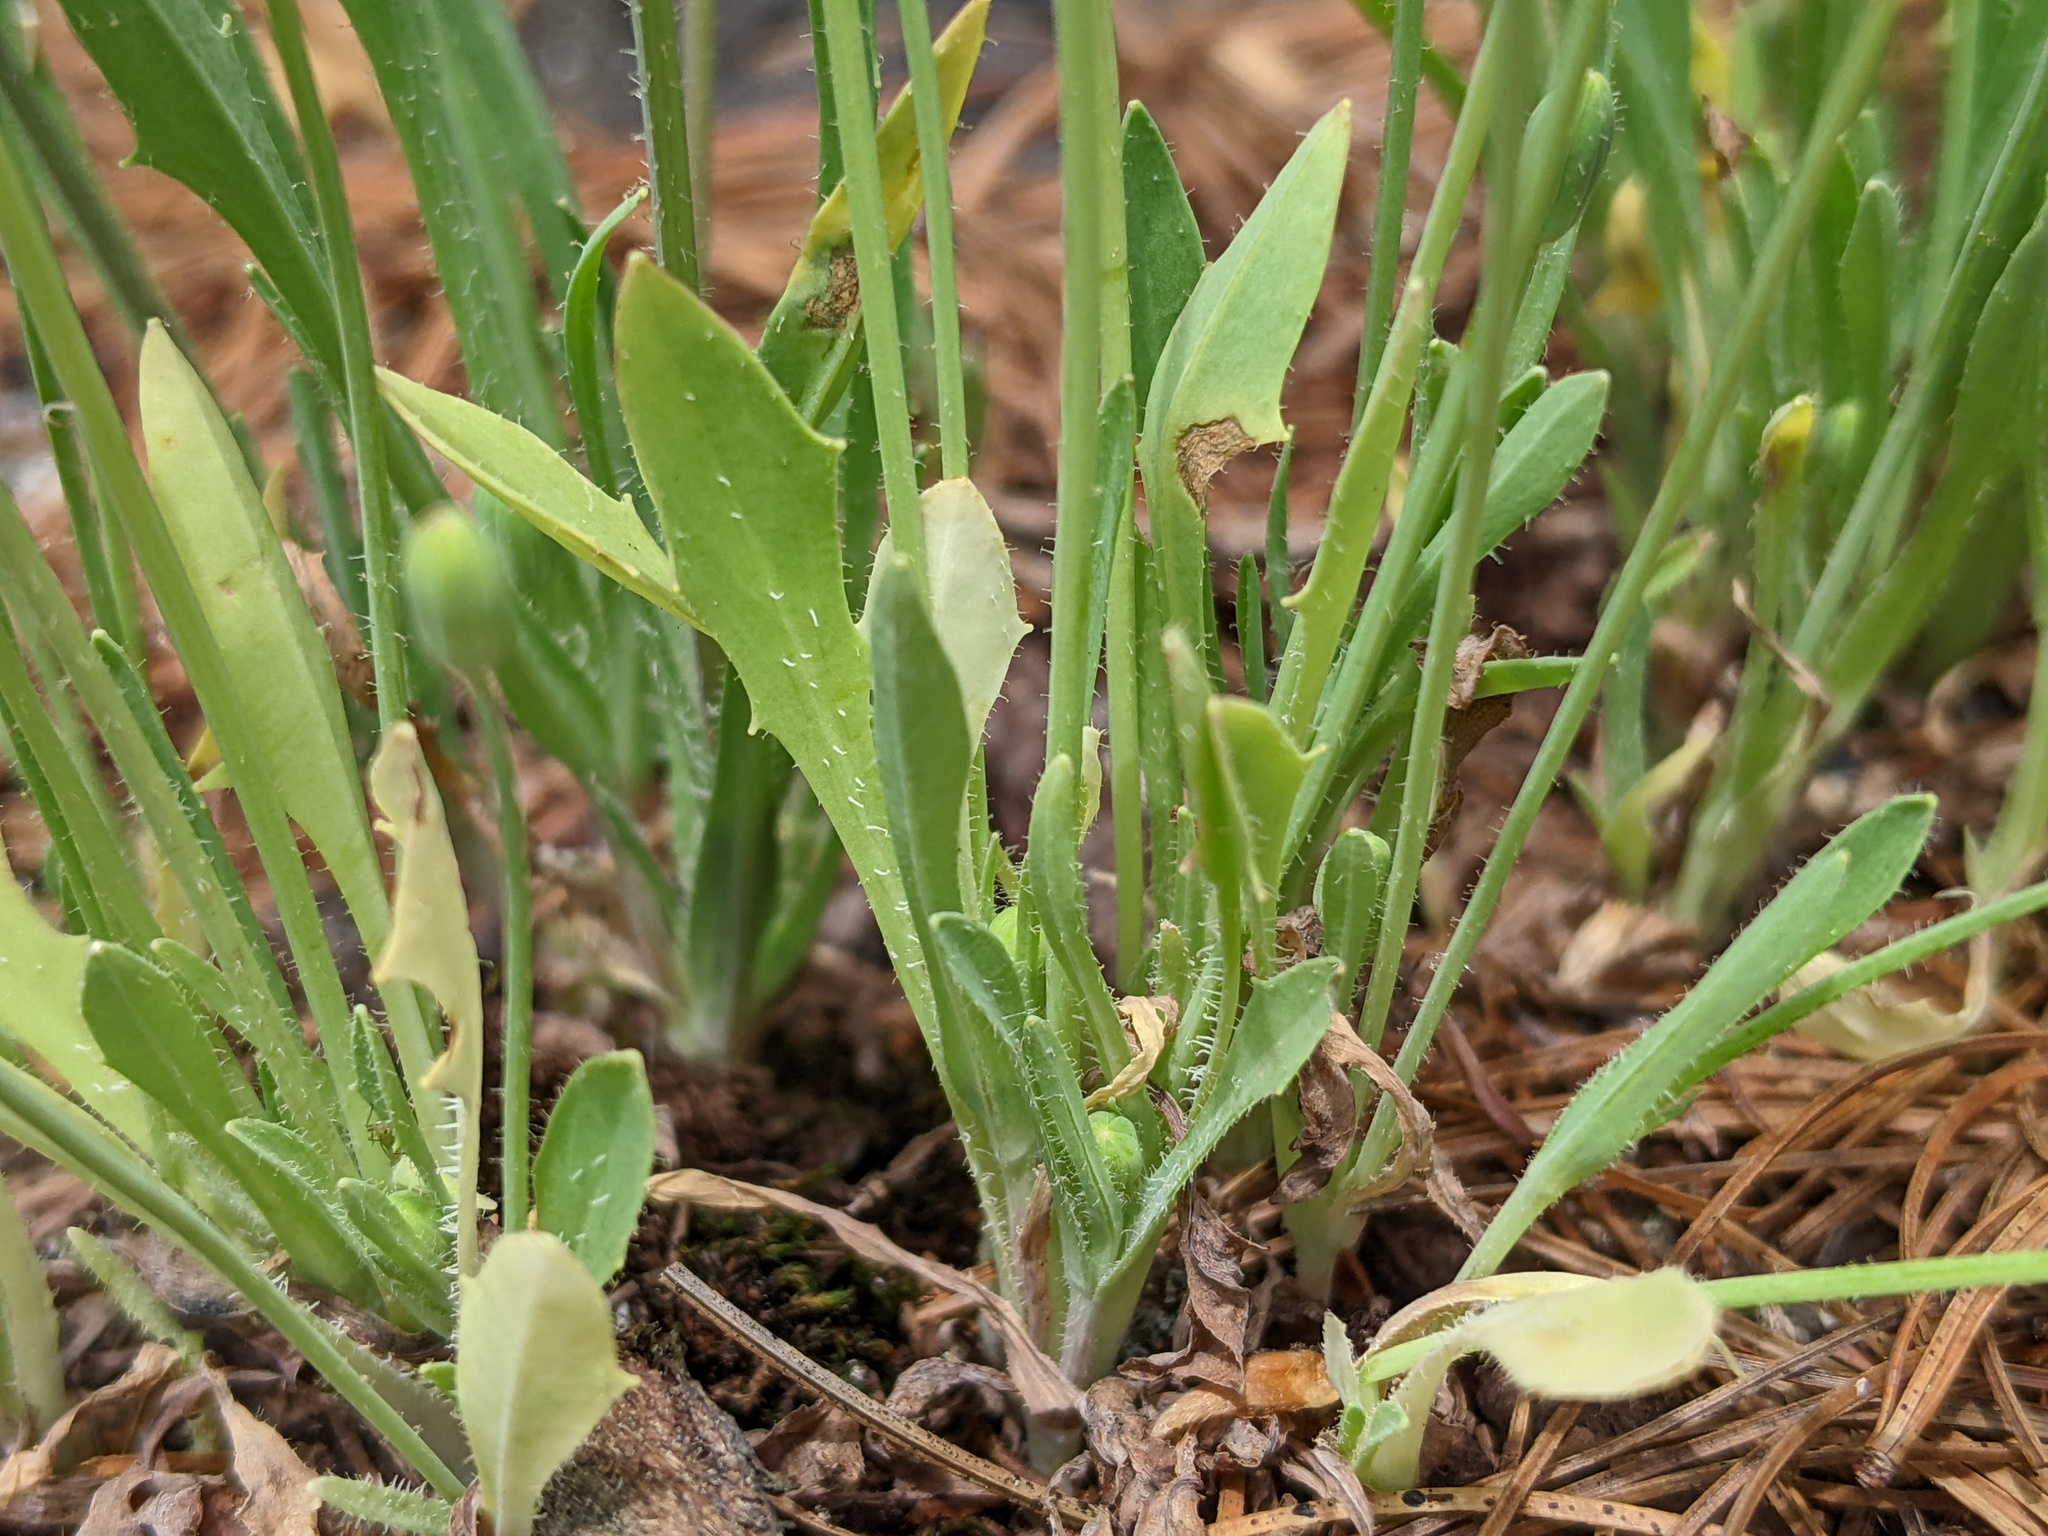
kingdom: Plantae
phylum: Tracheophyta
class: Magnoliopsida
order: Asterales
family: Asteraceae
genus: Krigia
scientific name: Krigia virginica
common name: Virginia dwarf-dandelion
